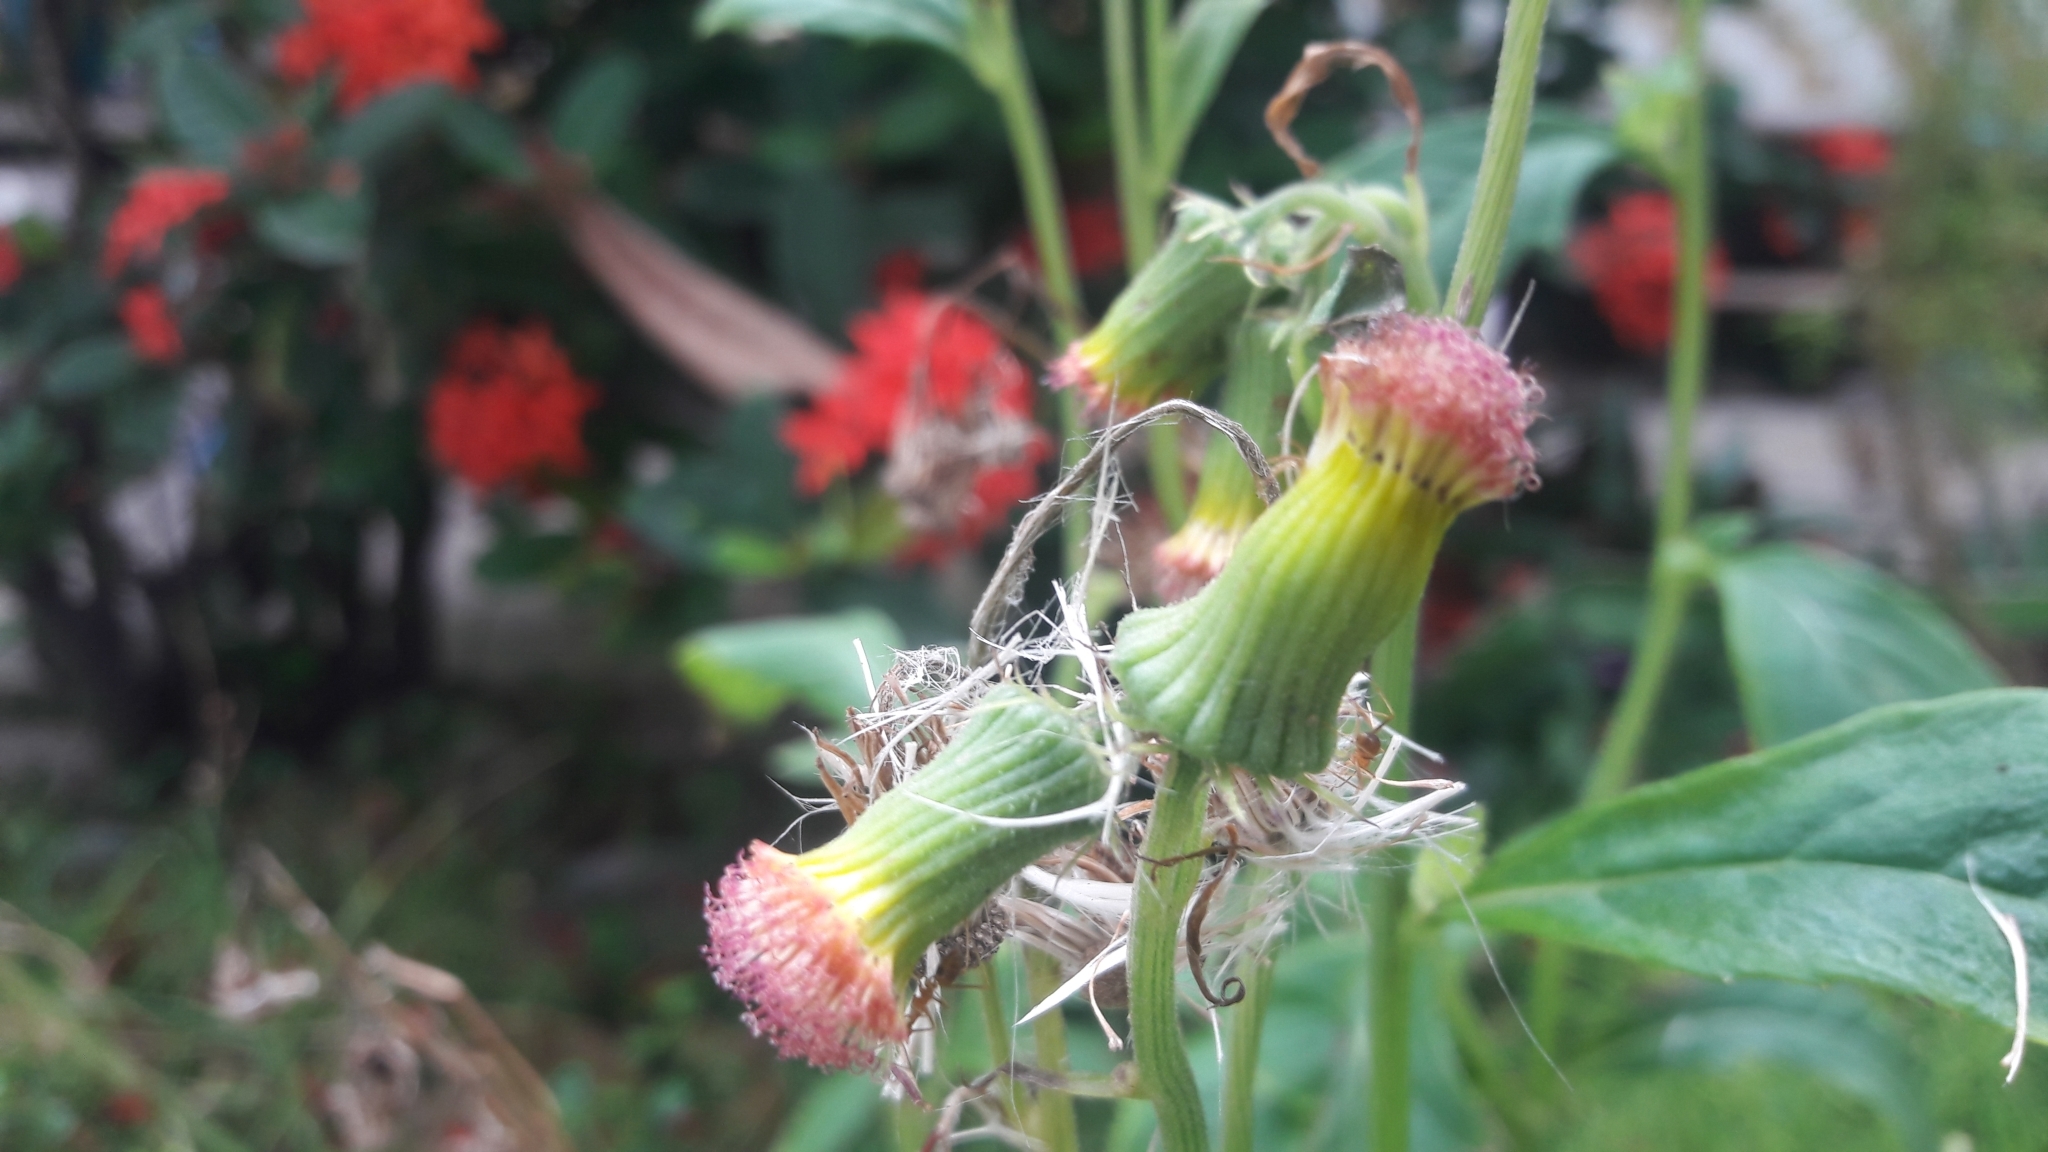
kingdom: Plantae
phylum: Tracheophyta
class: Magnoliopsida
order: Asterales
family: Asteraceae
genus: Crassocephalum
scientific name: Crassocephalum crepidioides
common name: Redflower ragleaf
